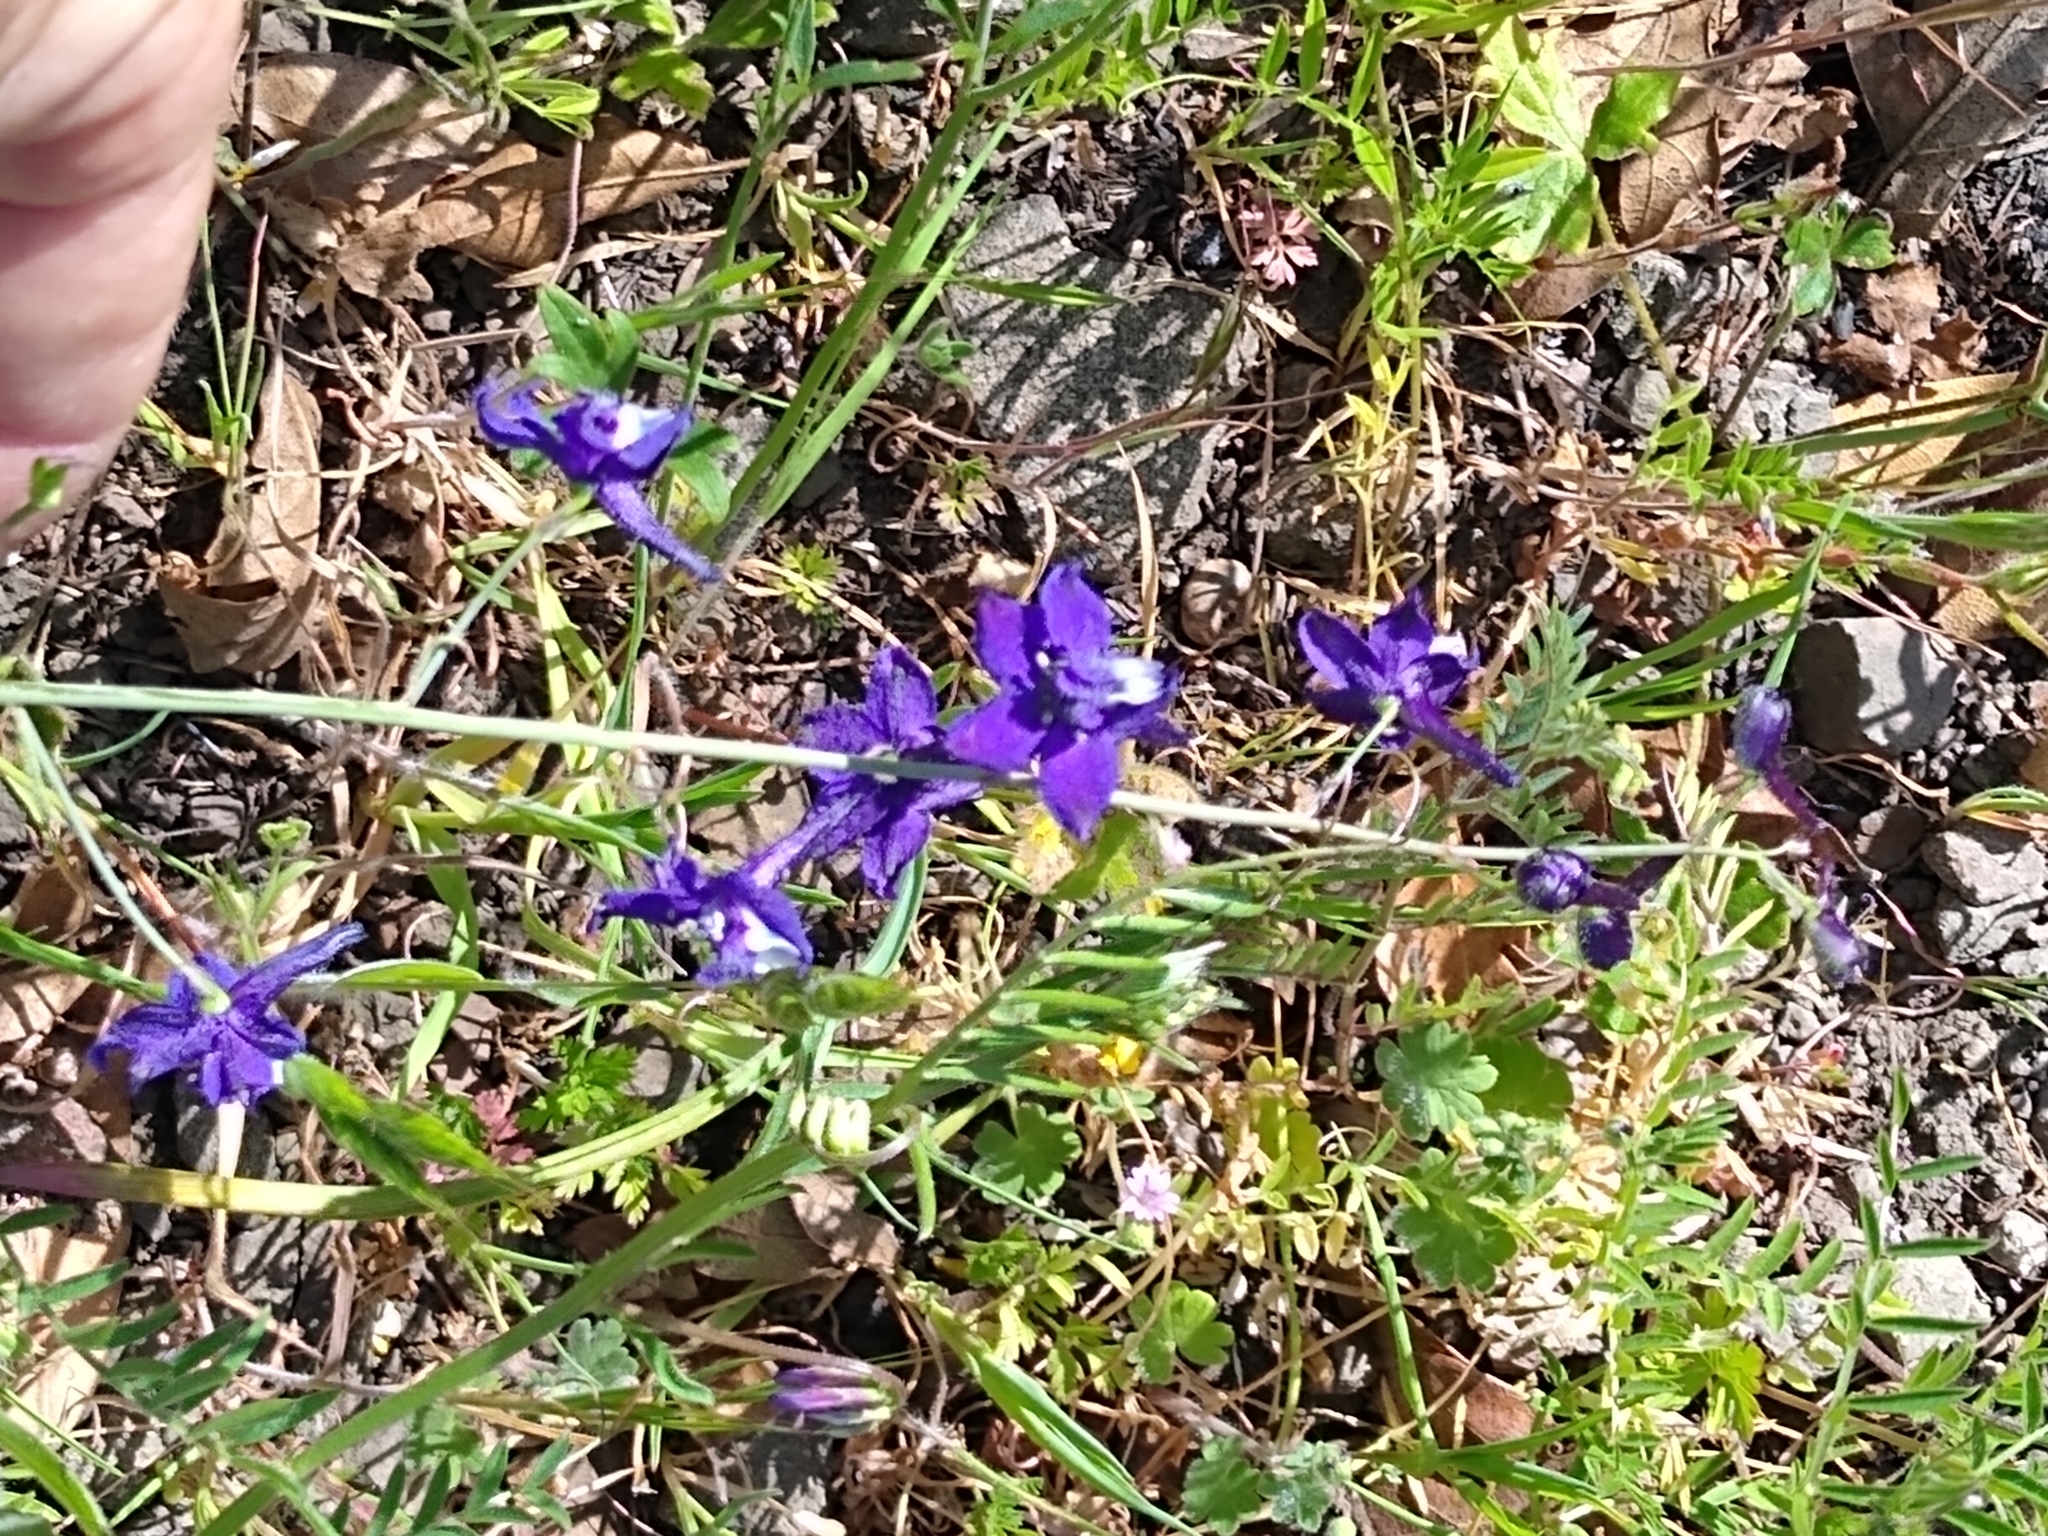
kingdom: Plantae
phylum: Tracheophyta
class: Magnoliopsida
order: Ranunculales
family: Ranunculaceae
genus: Delphinium
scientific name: Delphinium patens
